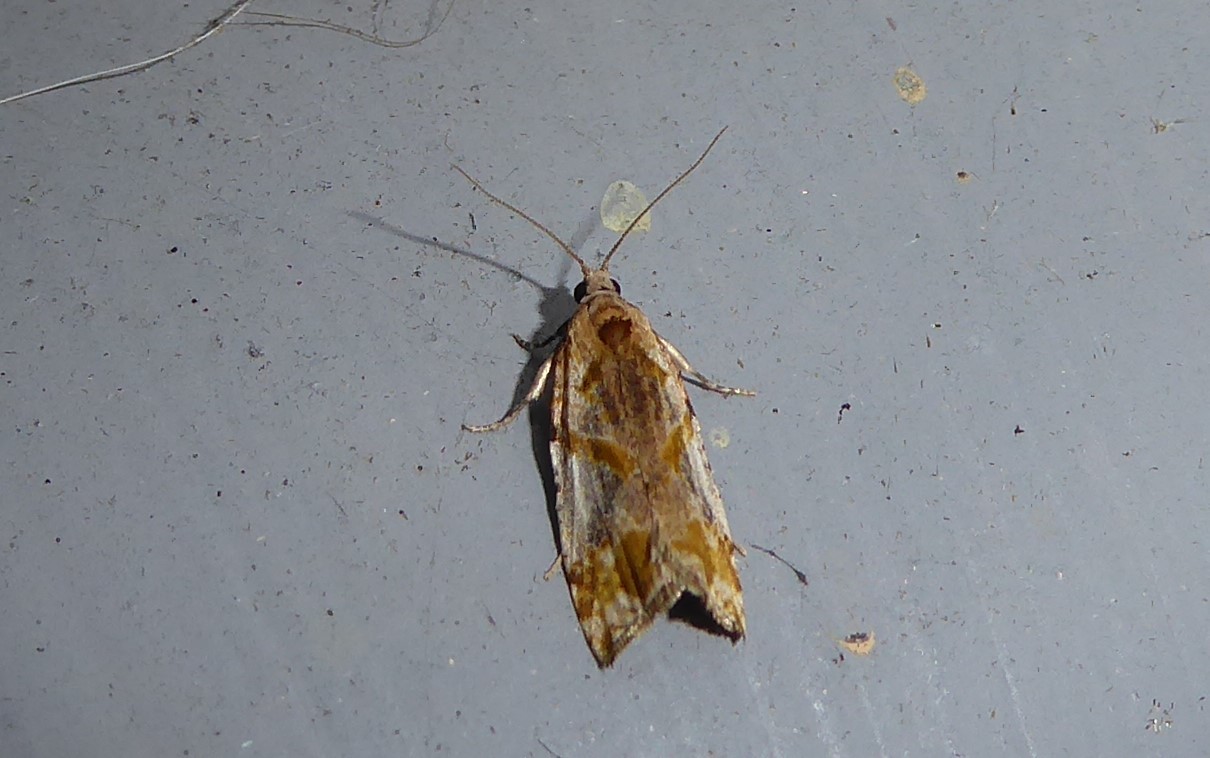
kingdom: Animalia
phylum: Arthropoda
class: Insecta
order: Lepidoptera
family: Tortricidae
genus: Pyrgotis
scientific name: Pyrgotis plagiatana
